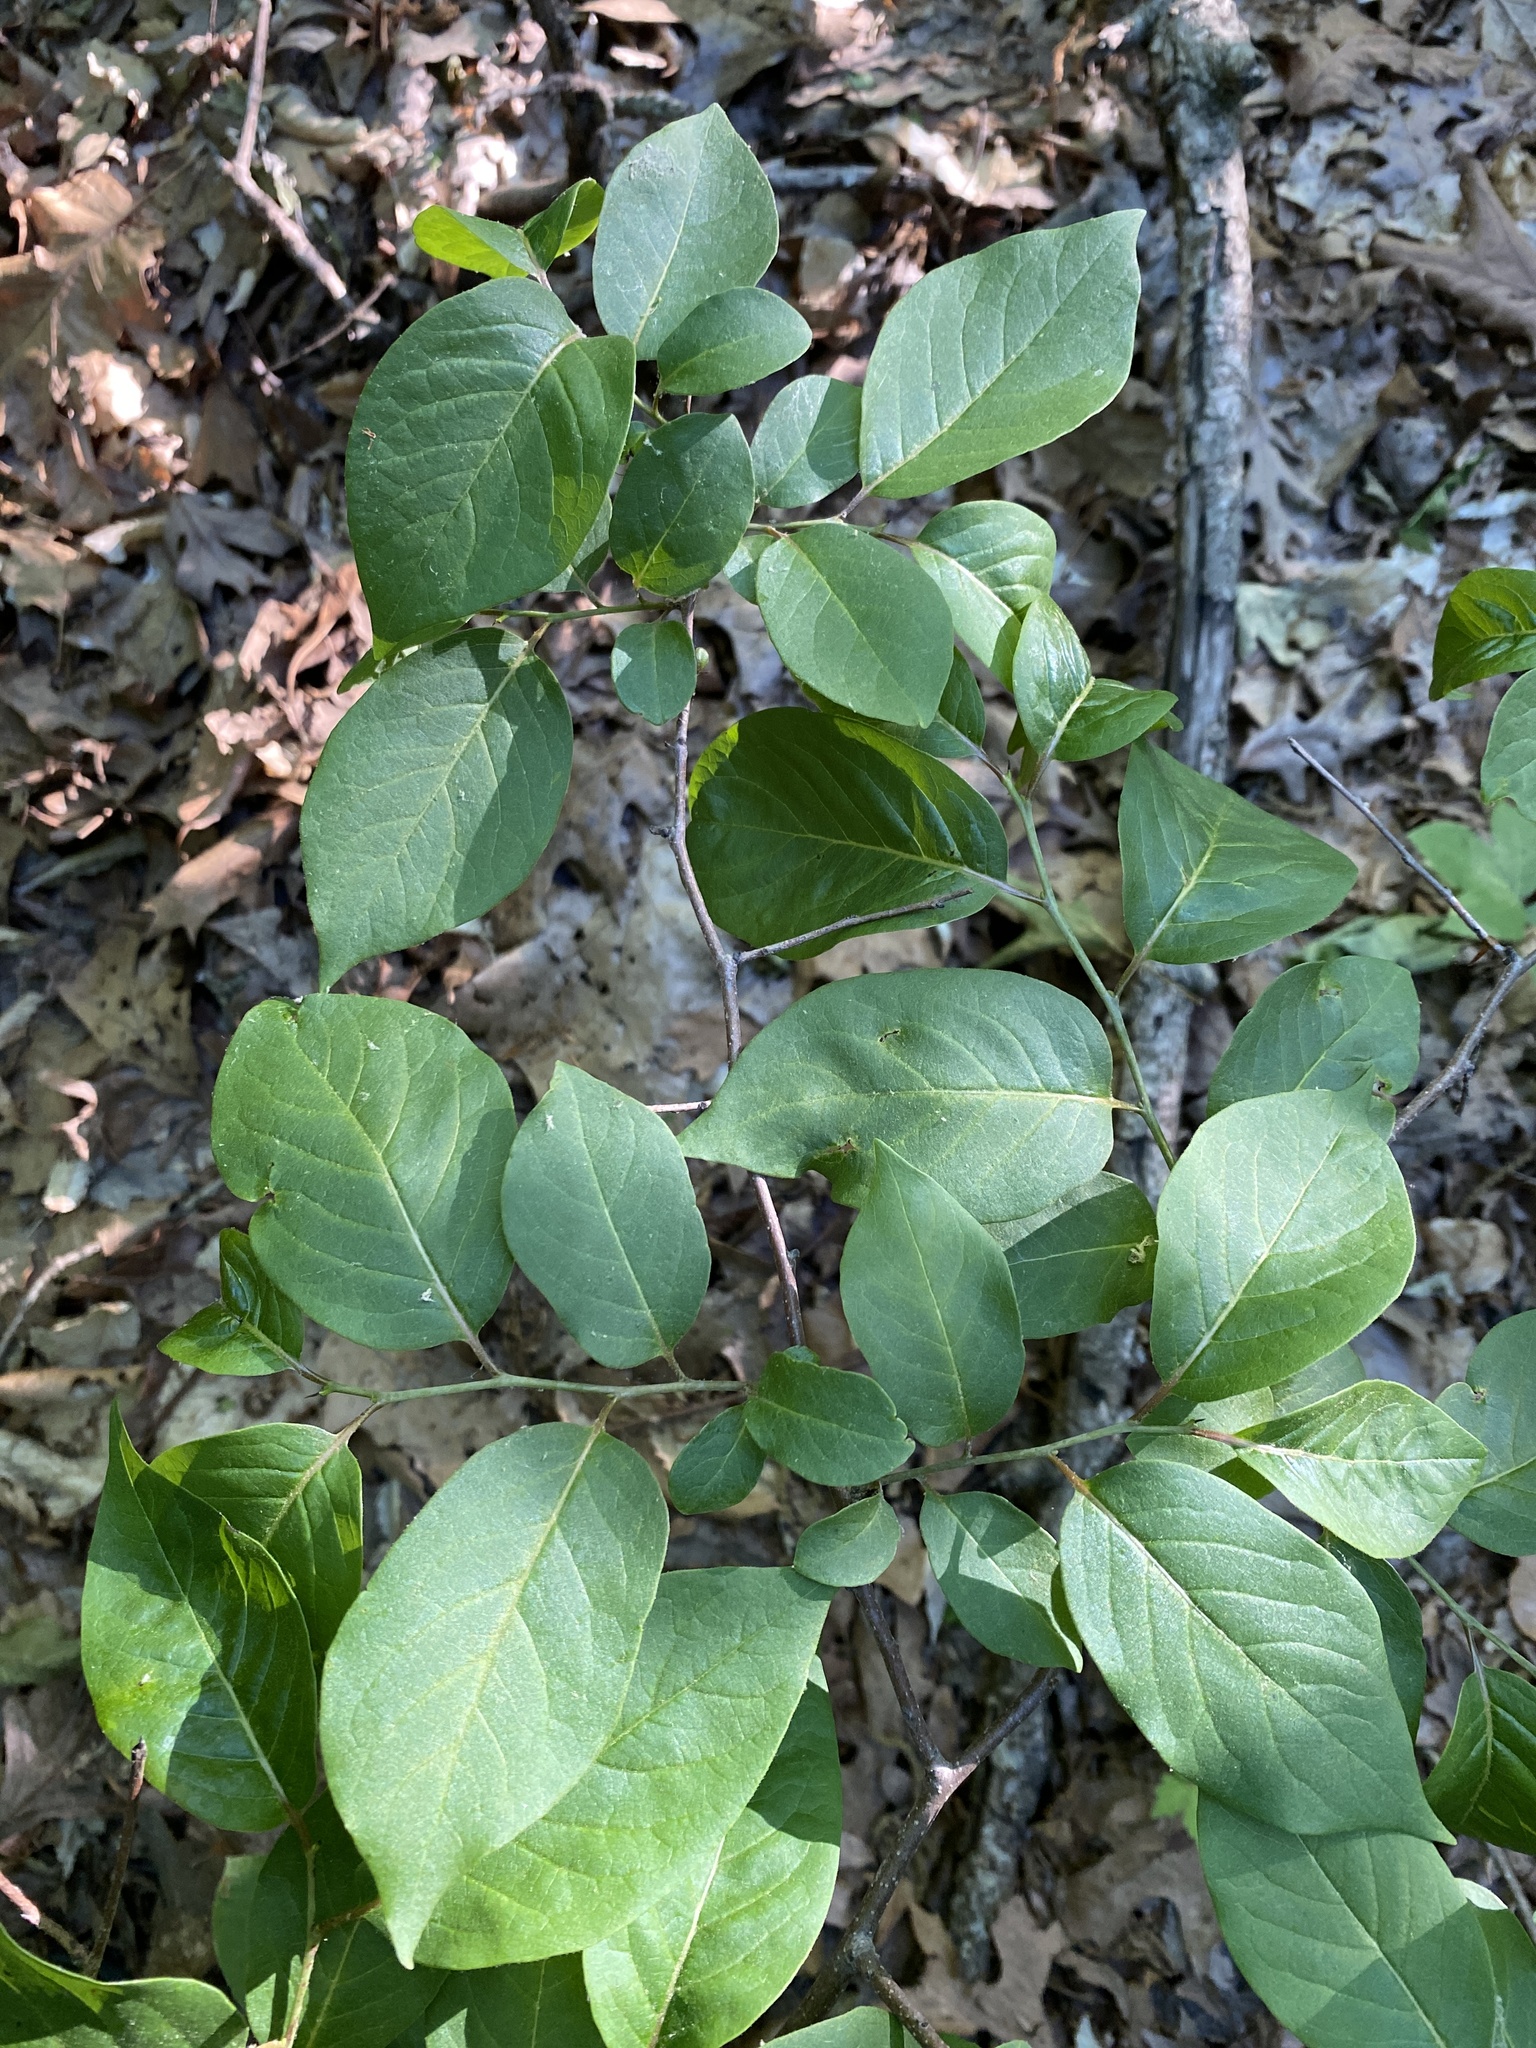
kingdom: Plantae
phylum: Tracheophyta
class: Magnoliopsida
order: Ericales
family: Ebenaceae
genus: Diospyros
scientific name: Diospyros virginiana
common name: Persimmon
